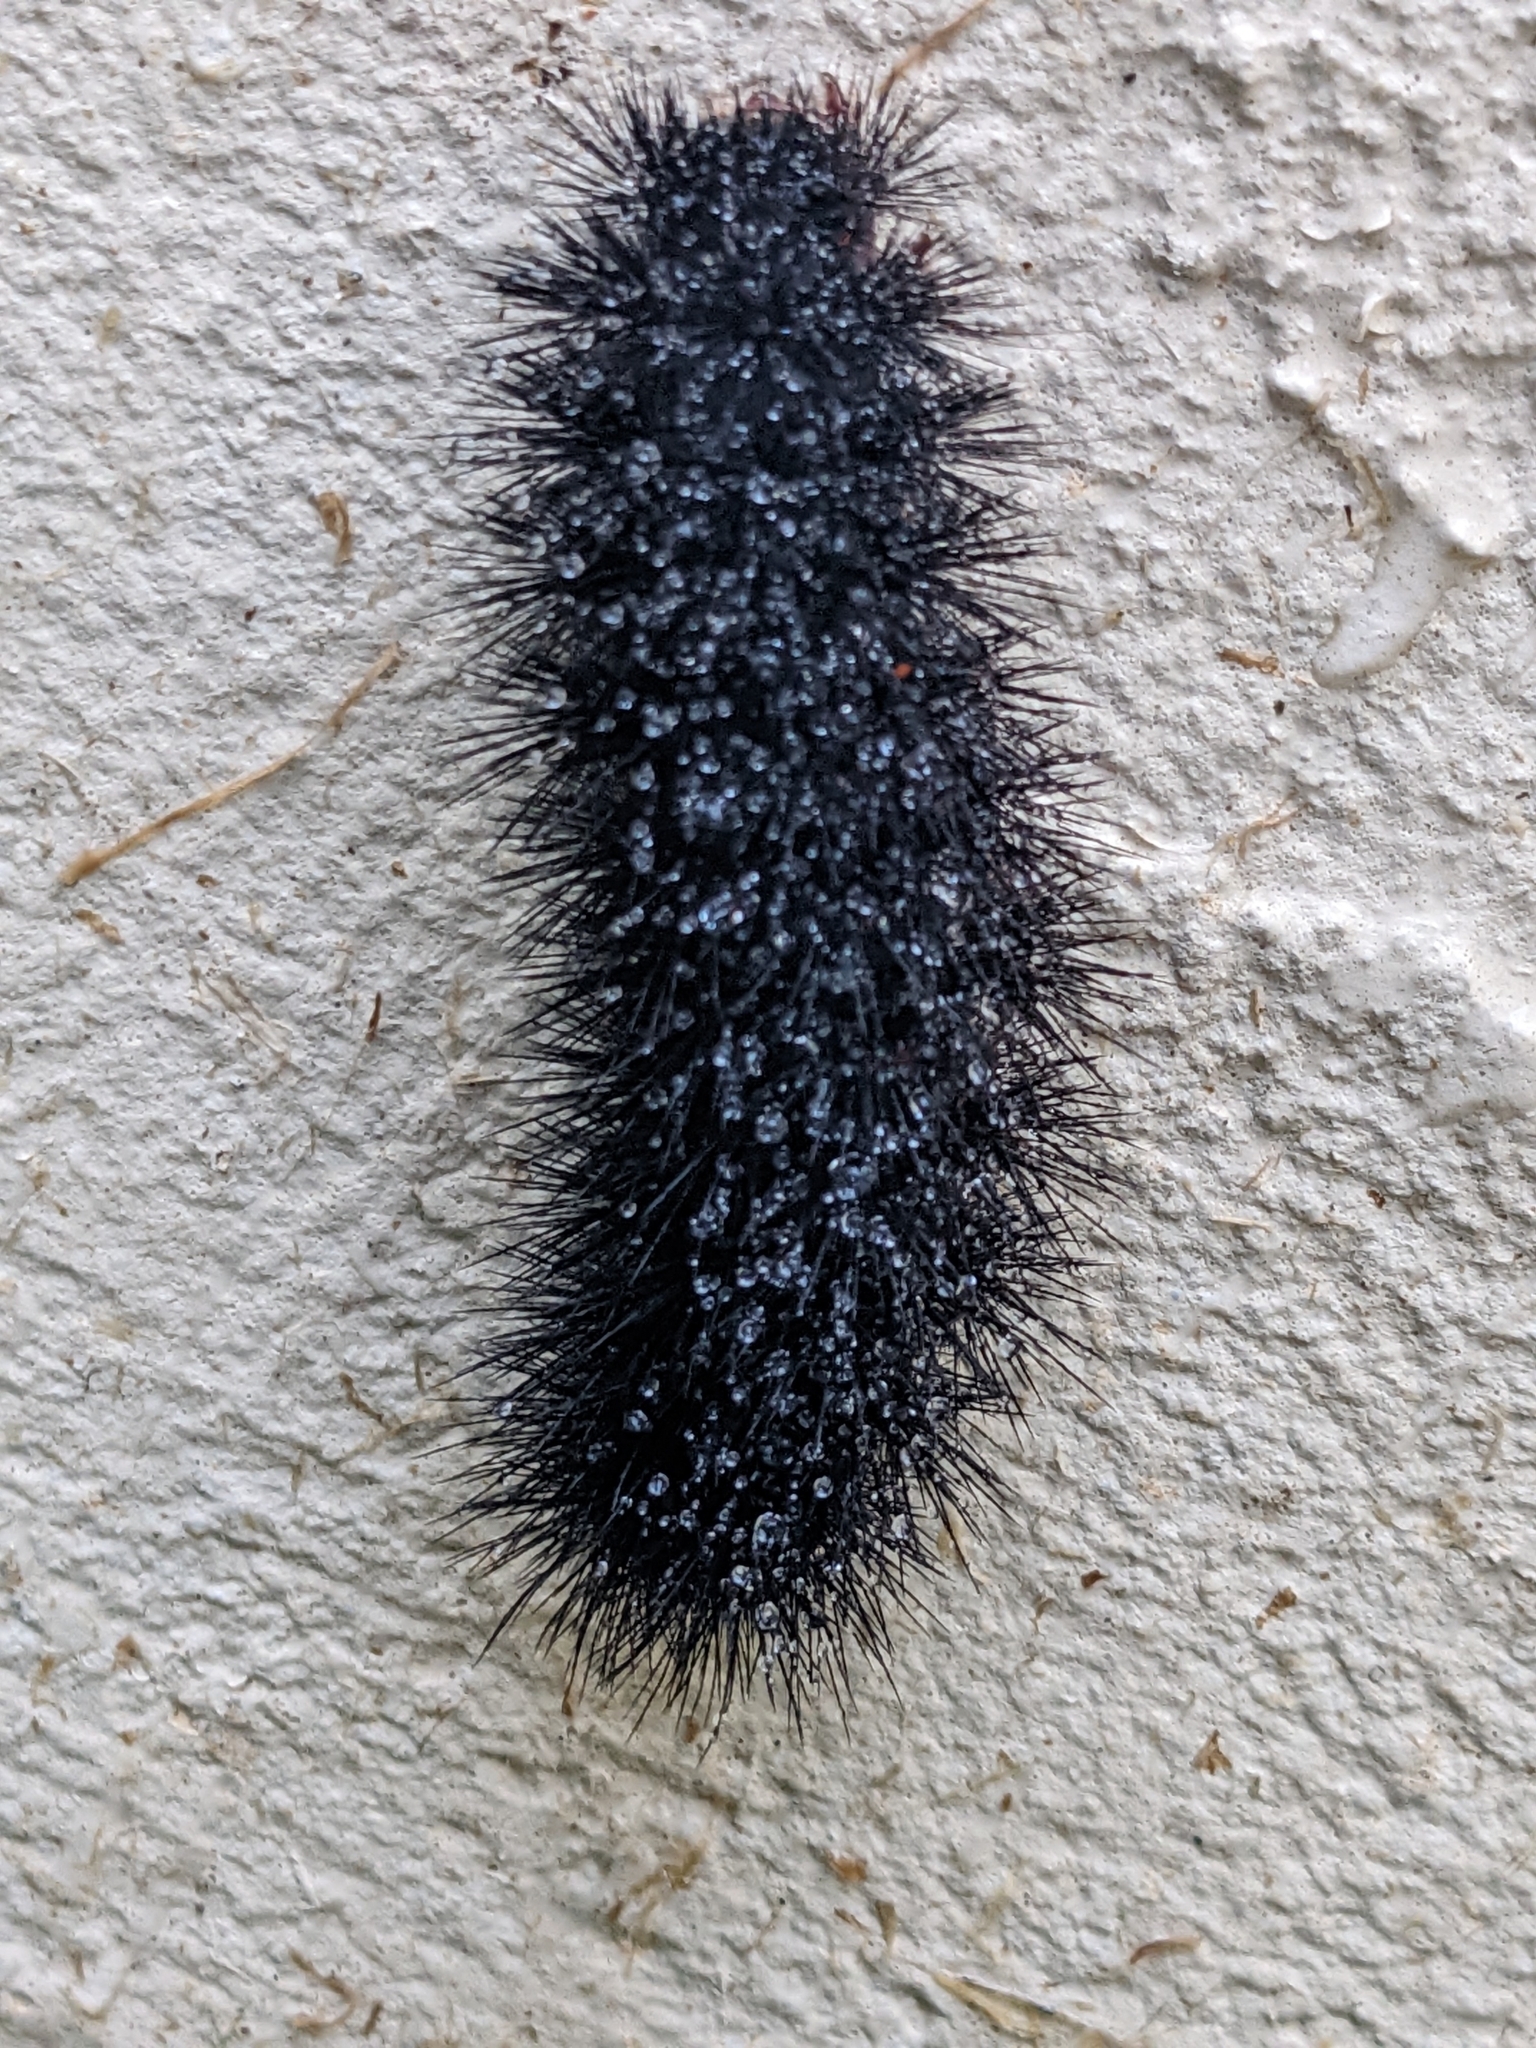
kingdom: Animalia
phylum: Arthropoda
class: Insecta
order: Lepidoptera
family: Erebidae
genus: Hypercompe
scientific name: Hypercompe scribonia
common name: Giant leopard moth
